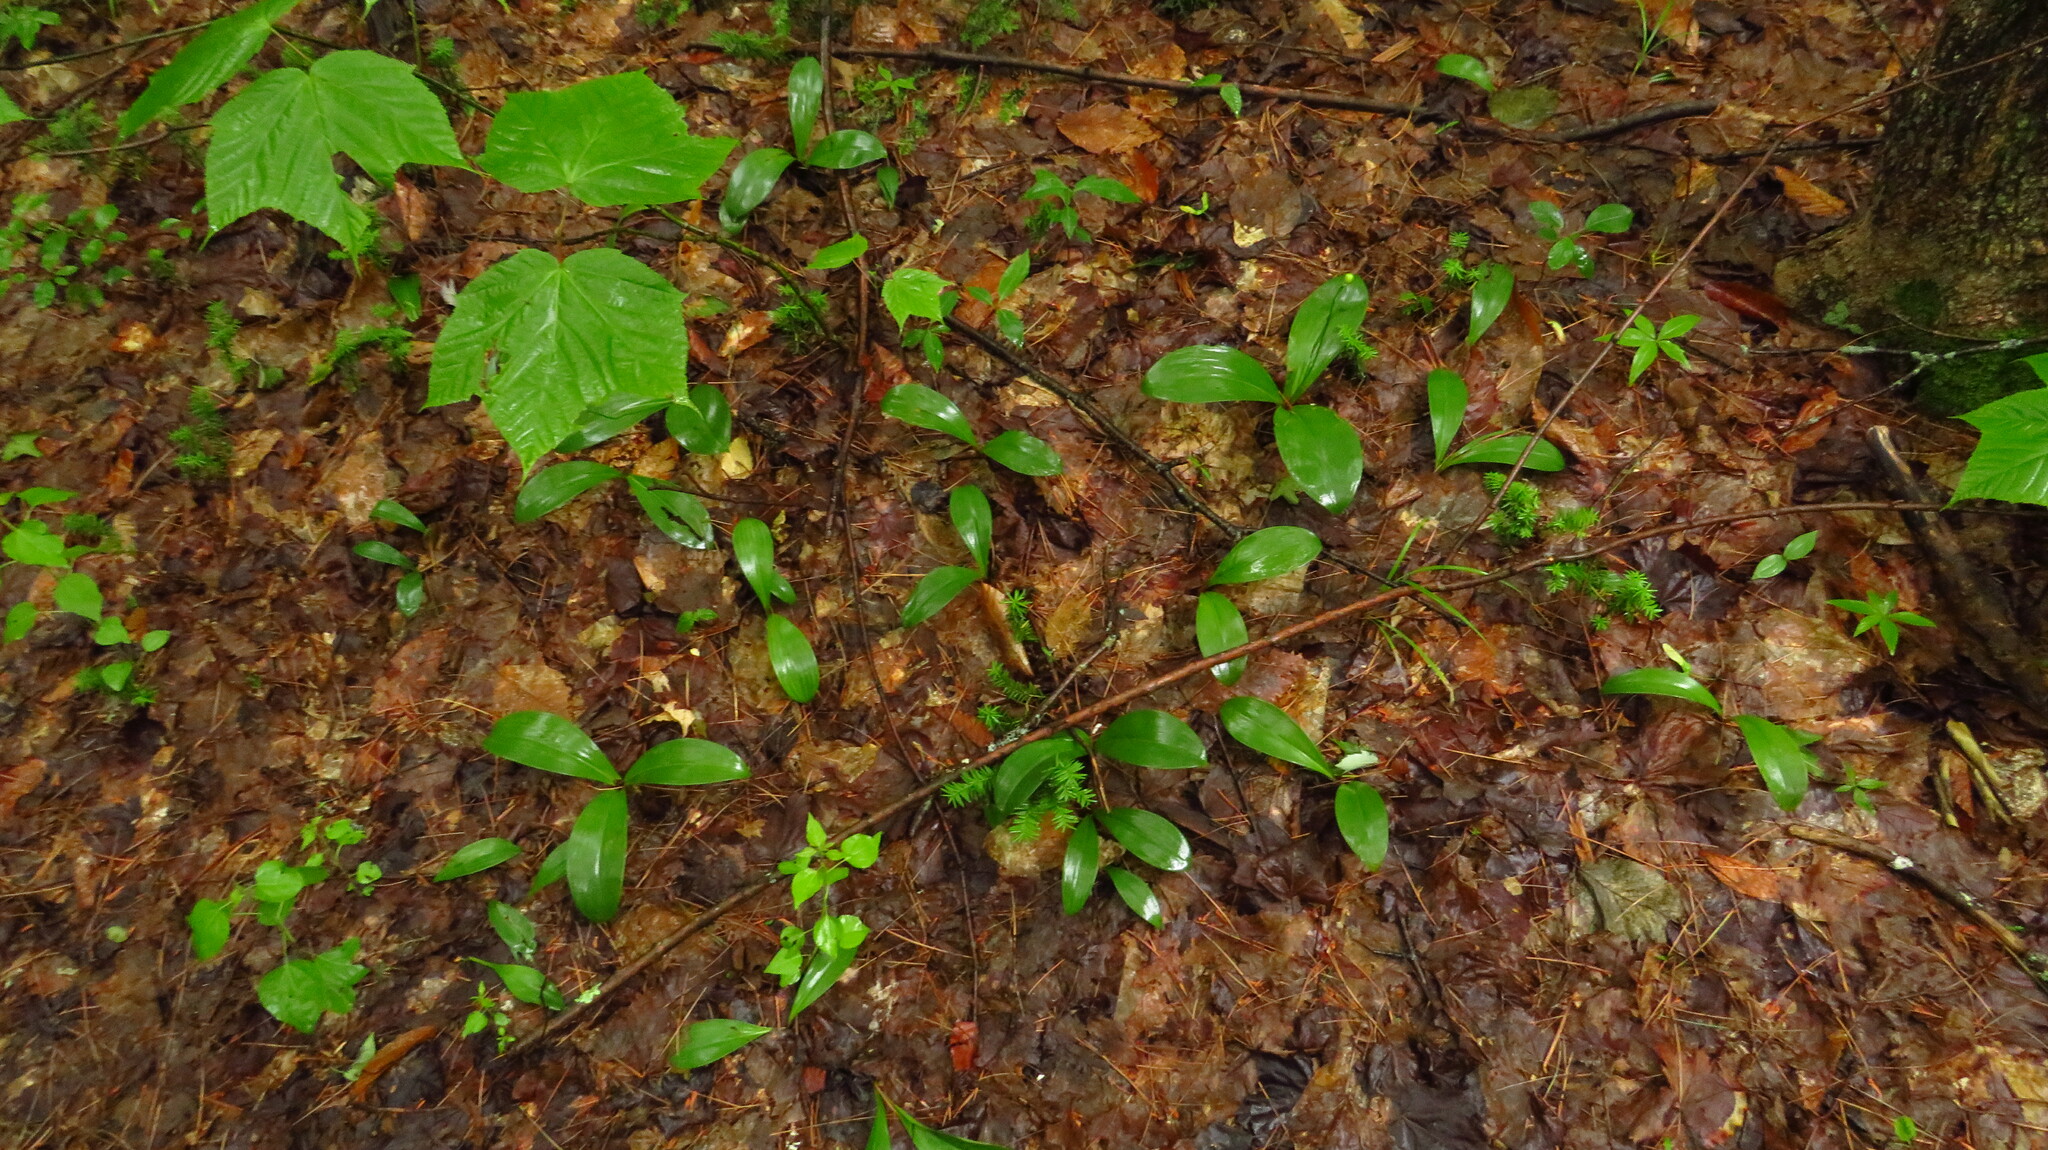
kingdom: Plantae
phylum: Tracheophyta
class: Liliopsida
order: Liliales
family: Liliaceae
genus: Clintonia
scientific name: Clintonia borealis
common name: Yellow clintonia
